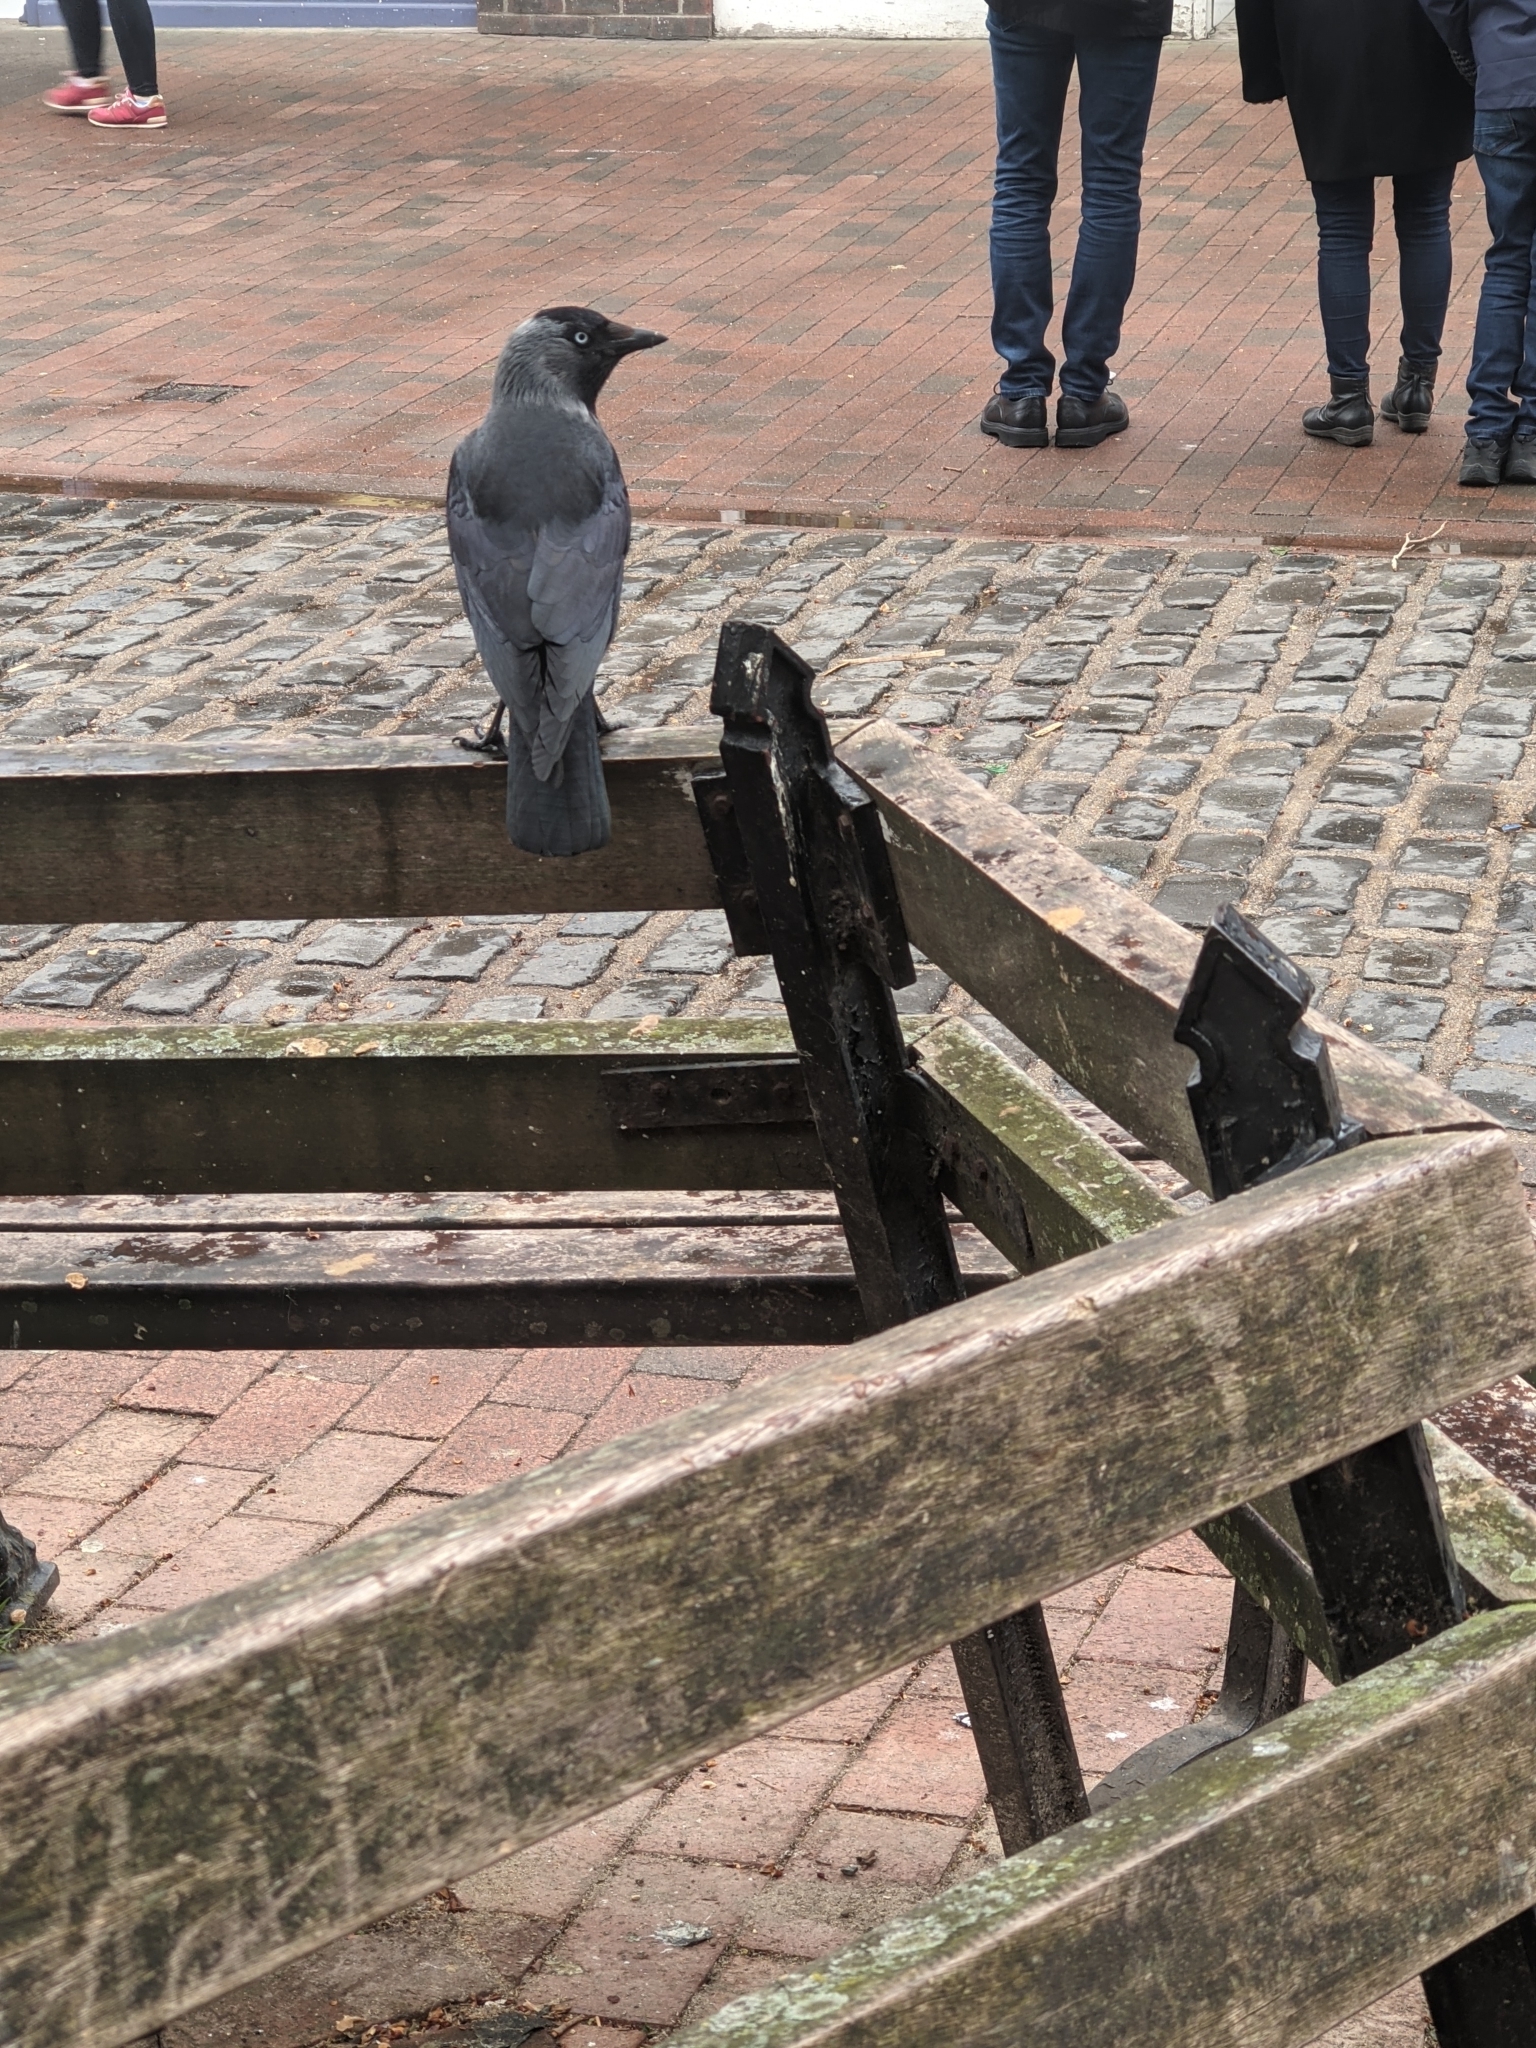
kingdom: Animalia
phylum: Chordata
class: Aves
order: Passeriformes
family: Corvidae
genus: Coloeus
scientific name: Coloeus monedula
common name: Western jackdaw
